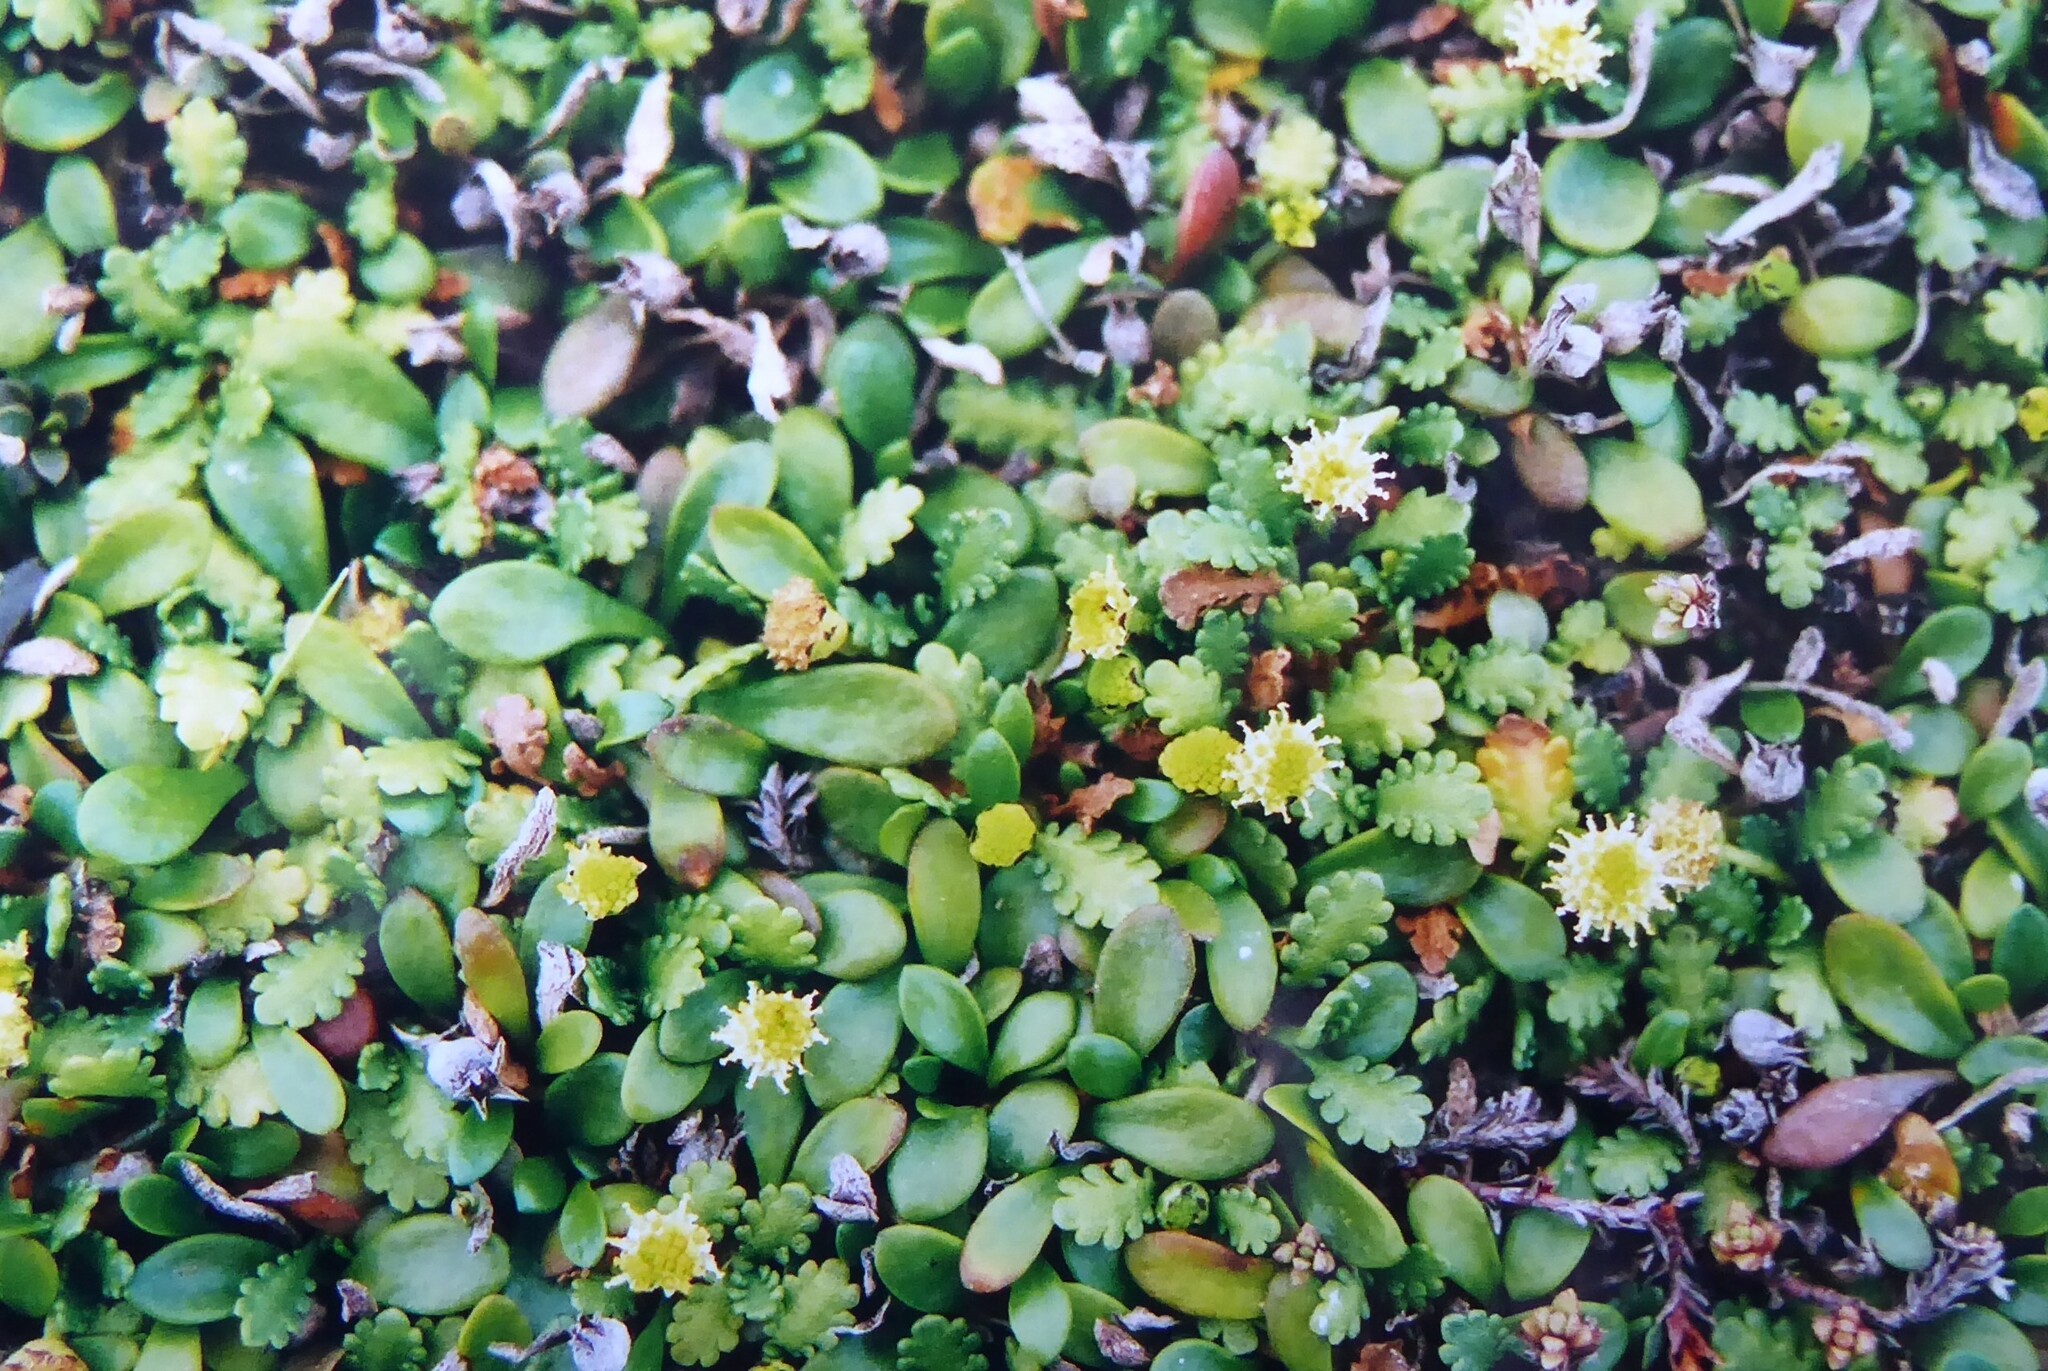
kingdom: Plantae
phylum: Tracheophyta
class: Magnoliopsida
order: Asterales
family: Goodeniaceae
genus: Goodenia
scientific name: Goodenia radicans
